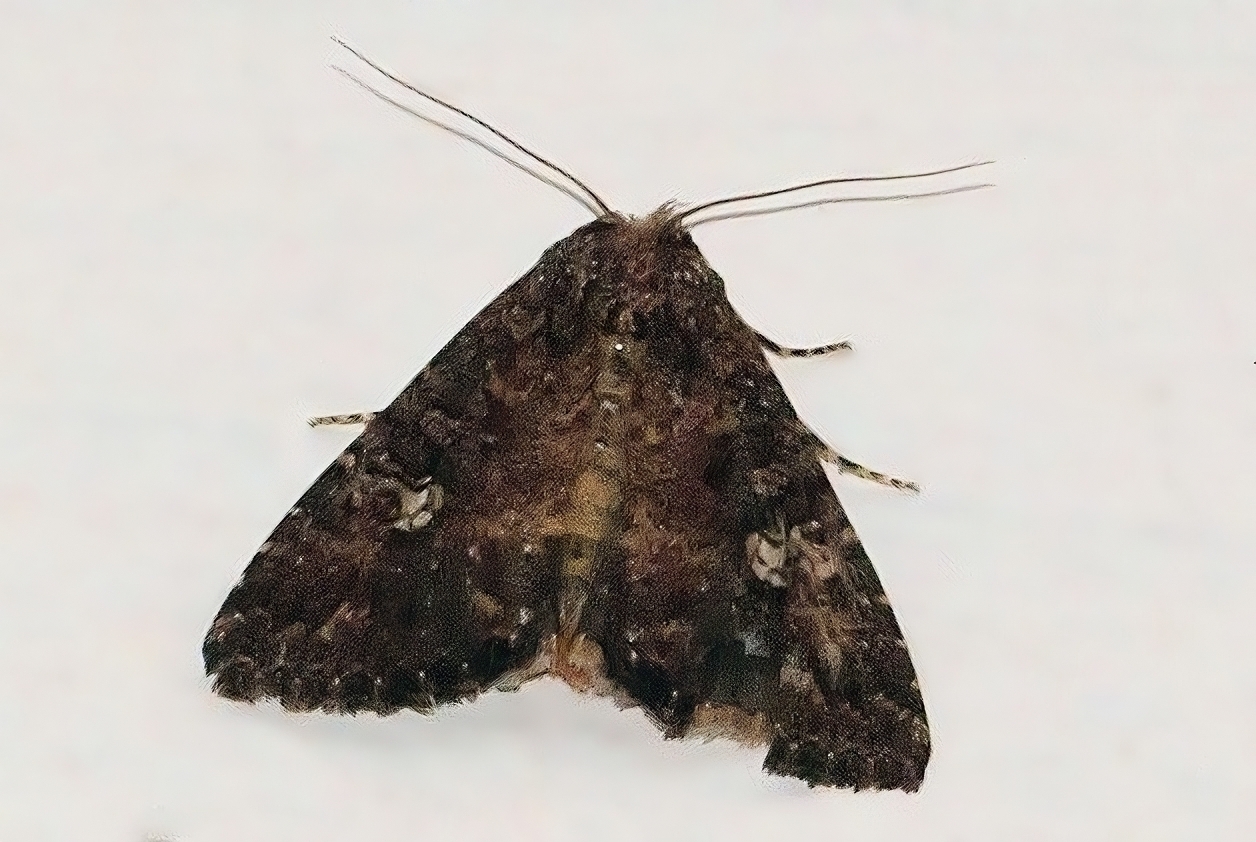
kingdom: Animalia
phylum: Arthropoda
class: Insecta
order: Lepidoptera
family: Noctuidae
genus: Condica
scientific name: Condica capensis
